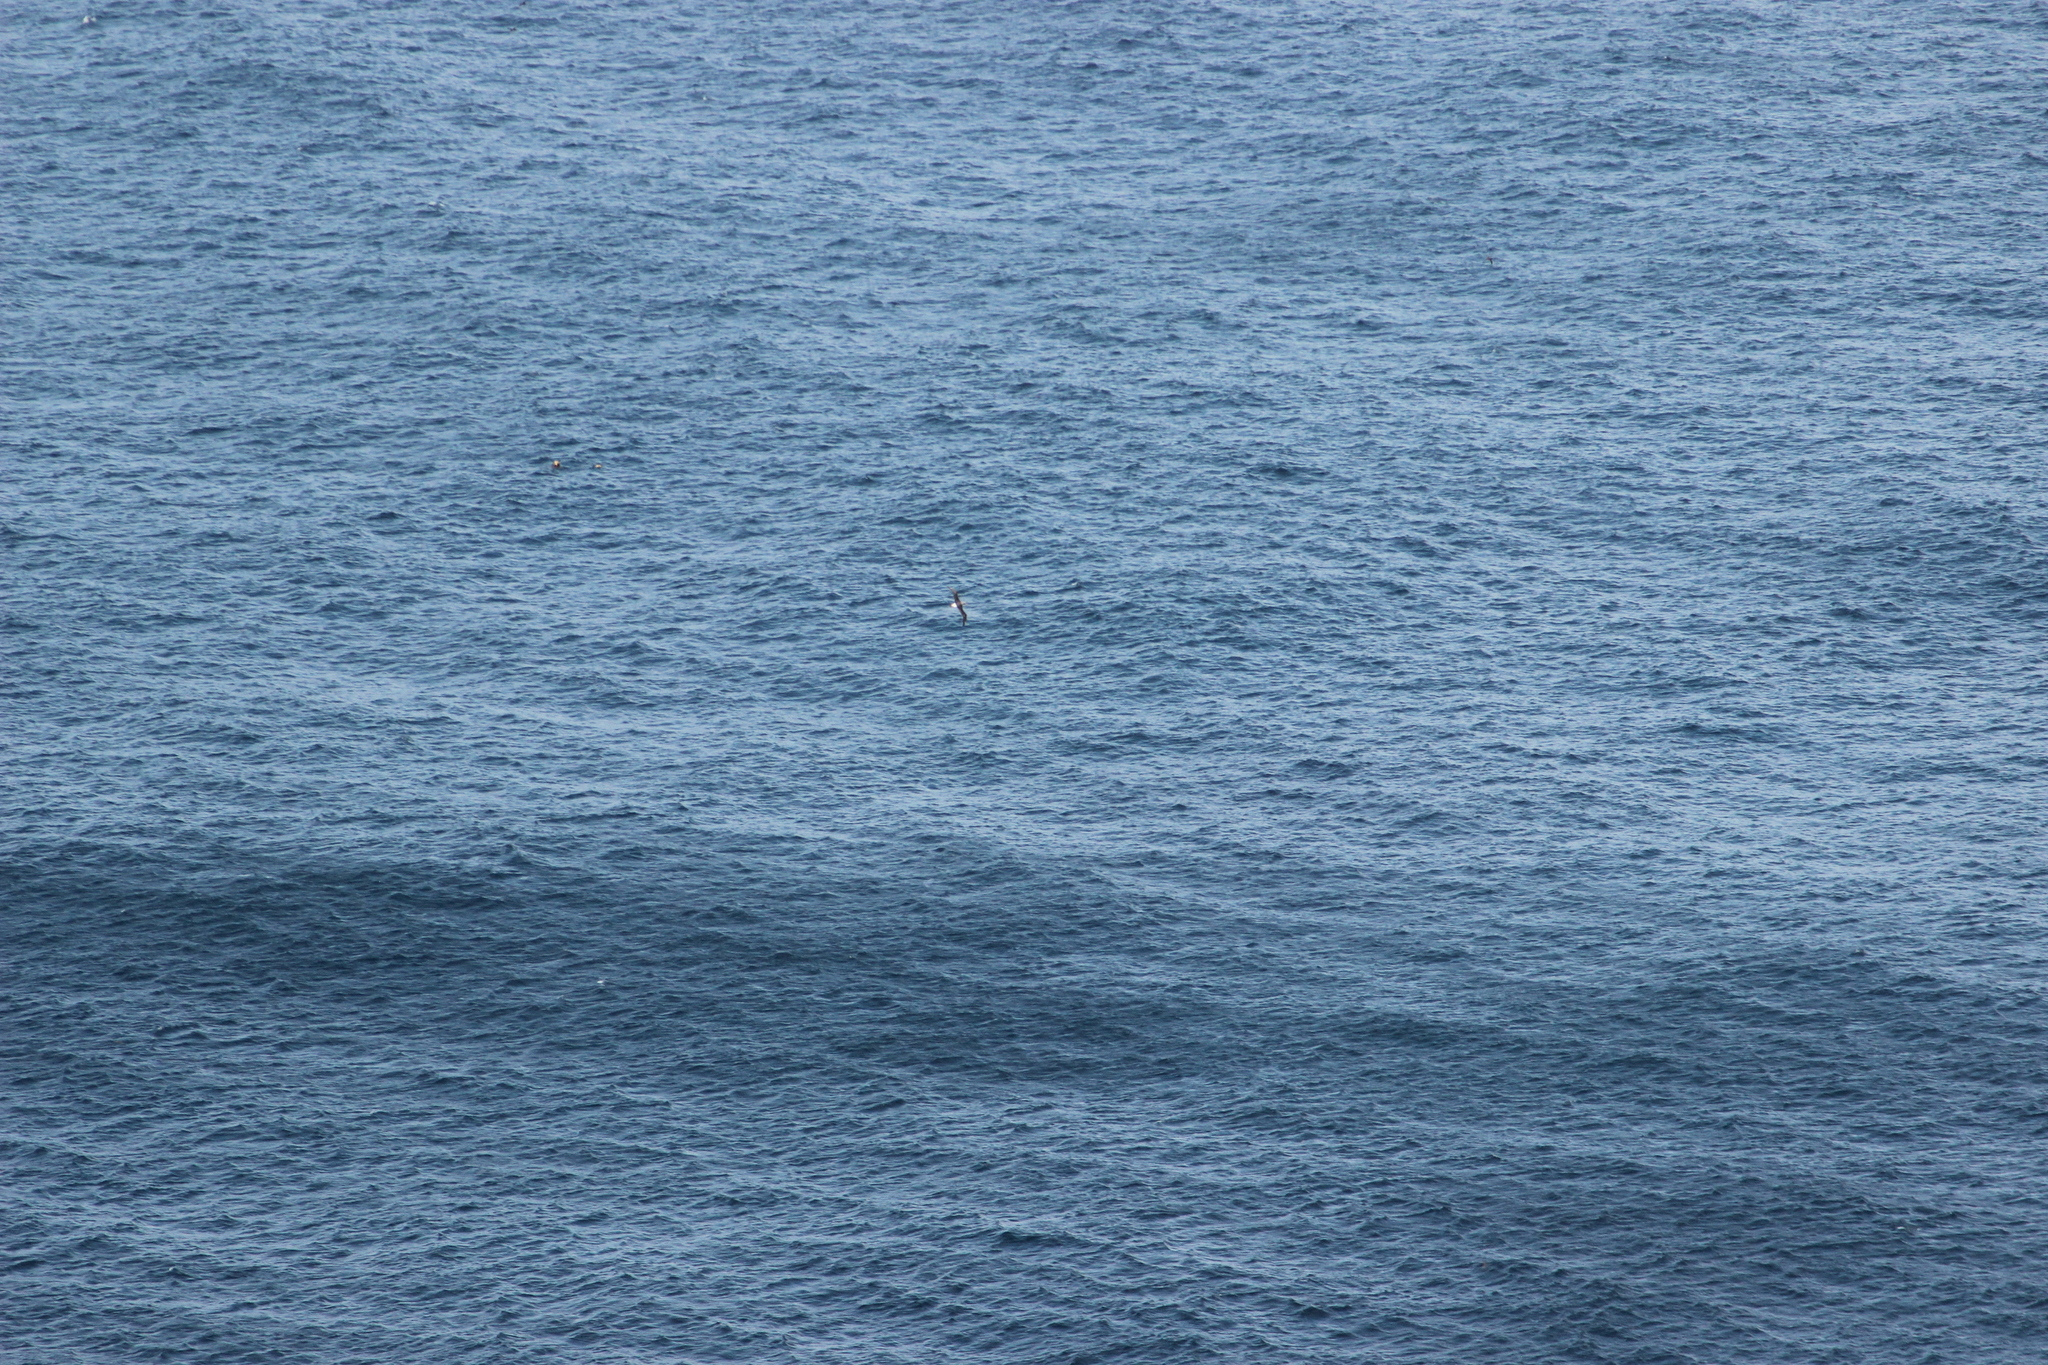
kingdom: Animalia
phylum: Chordata
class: Aves
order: Procellariiformes
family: Diomedeidae
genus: Thalassarche
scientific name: Thalassarche bulleri
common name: Buller's albatross
